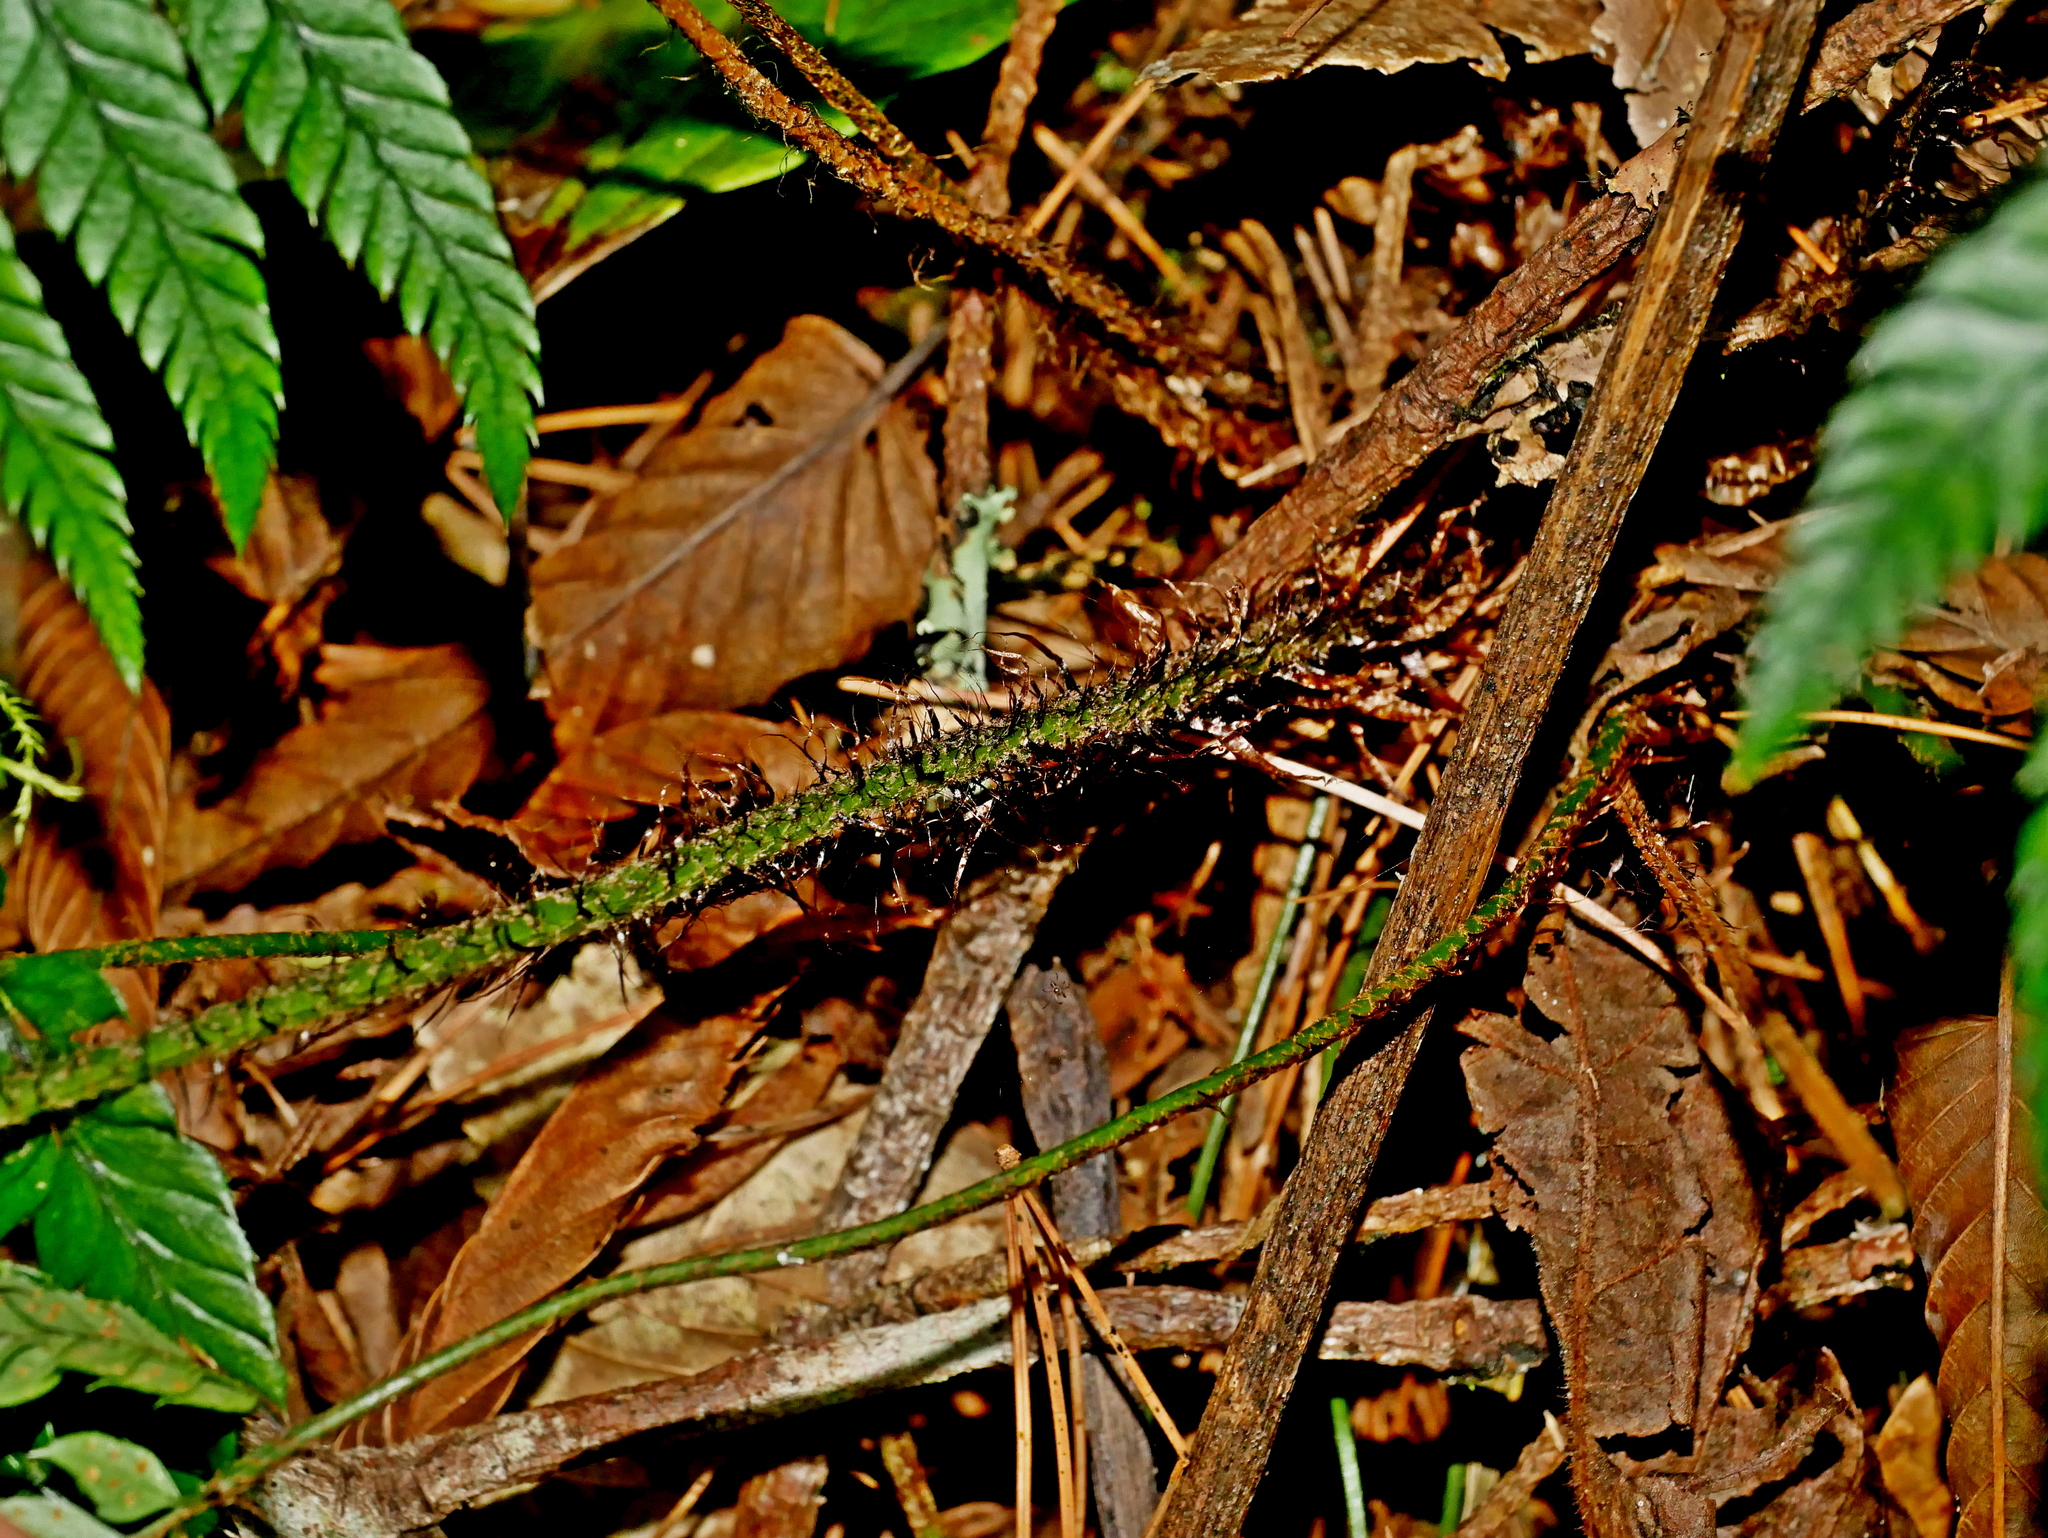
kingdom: Plantae
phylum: Tracheophyta
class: Polypodiopsida
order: Polypodiales
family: Dryopteridaceae
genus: Polystichum
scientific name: Polystichum luctuosum
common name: Korean rockfern
